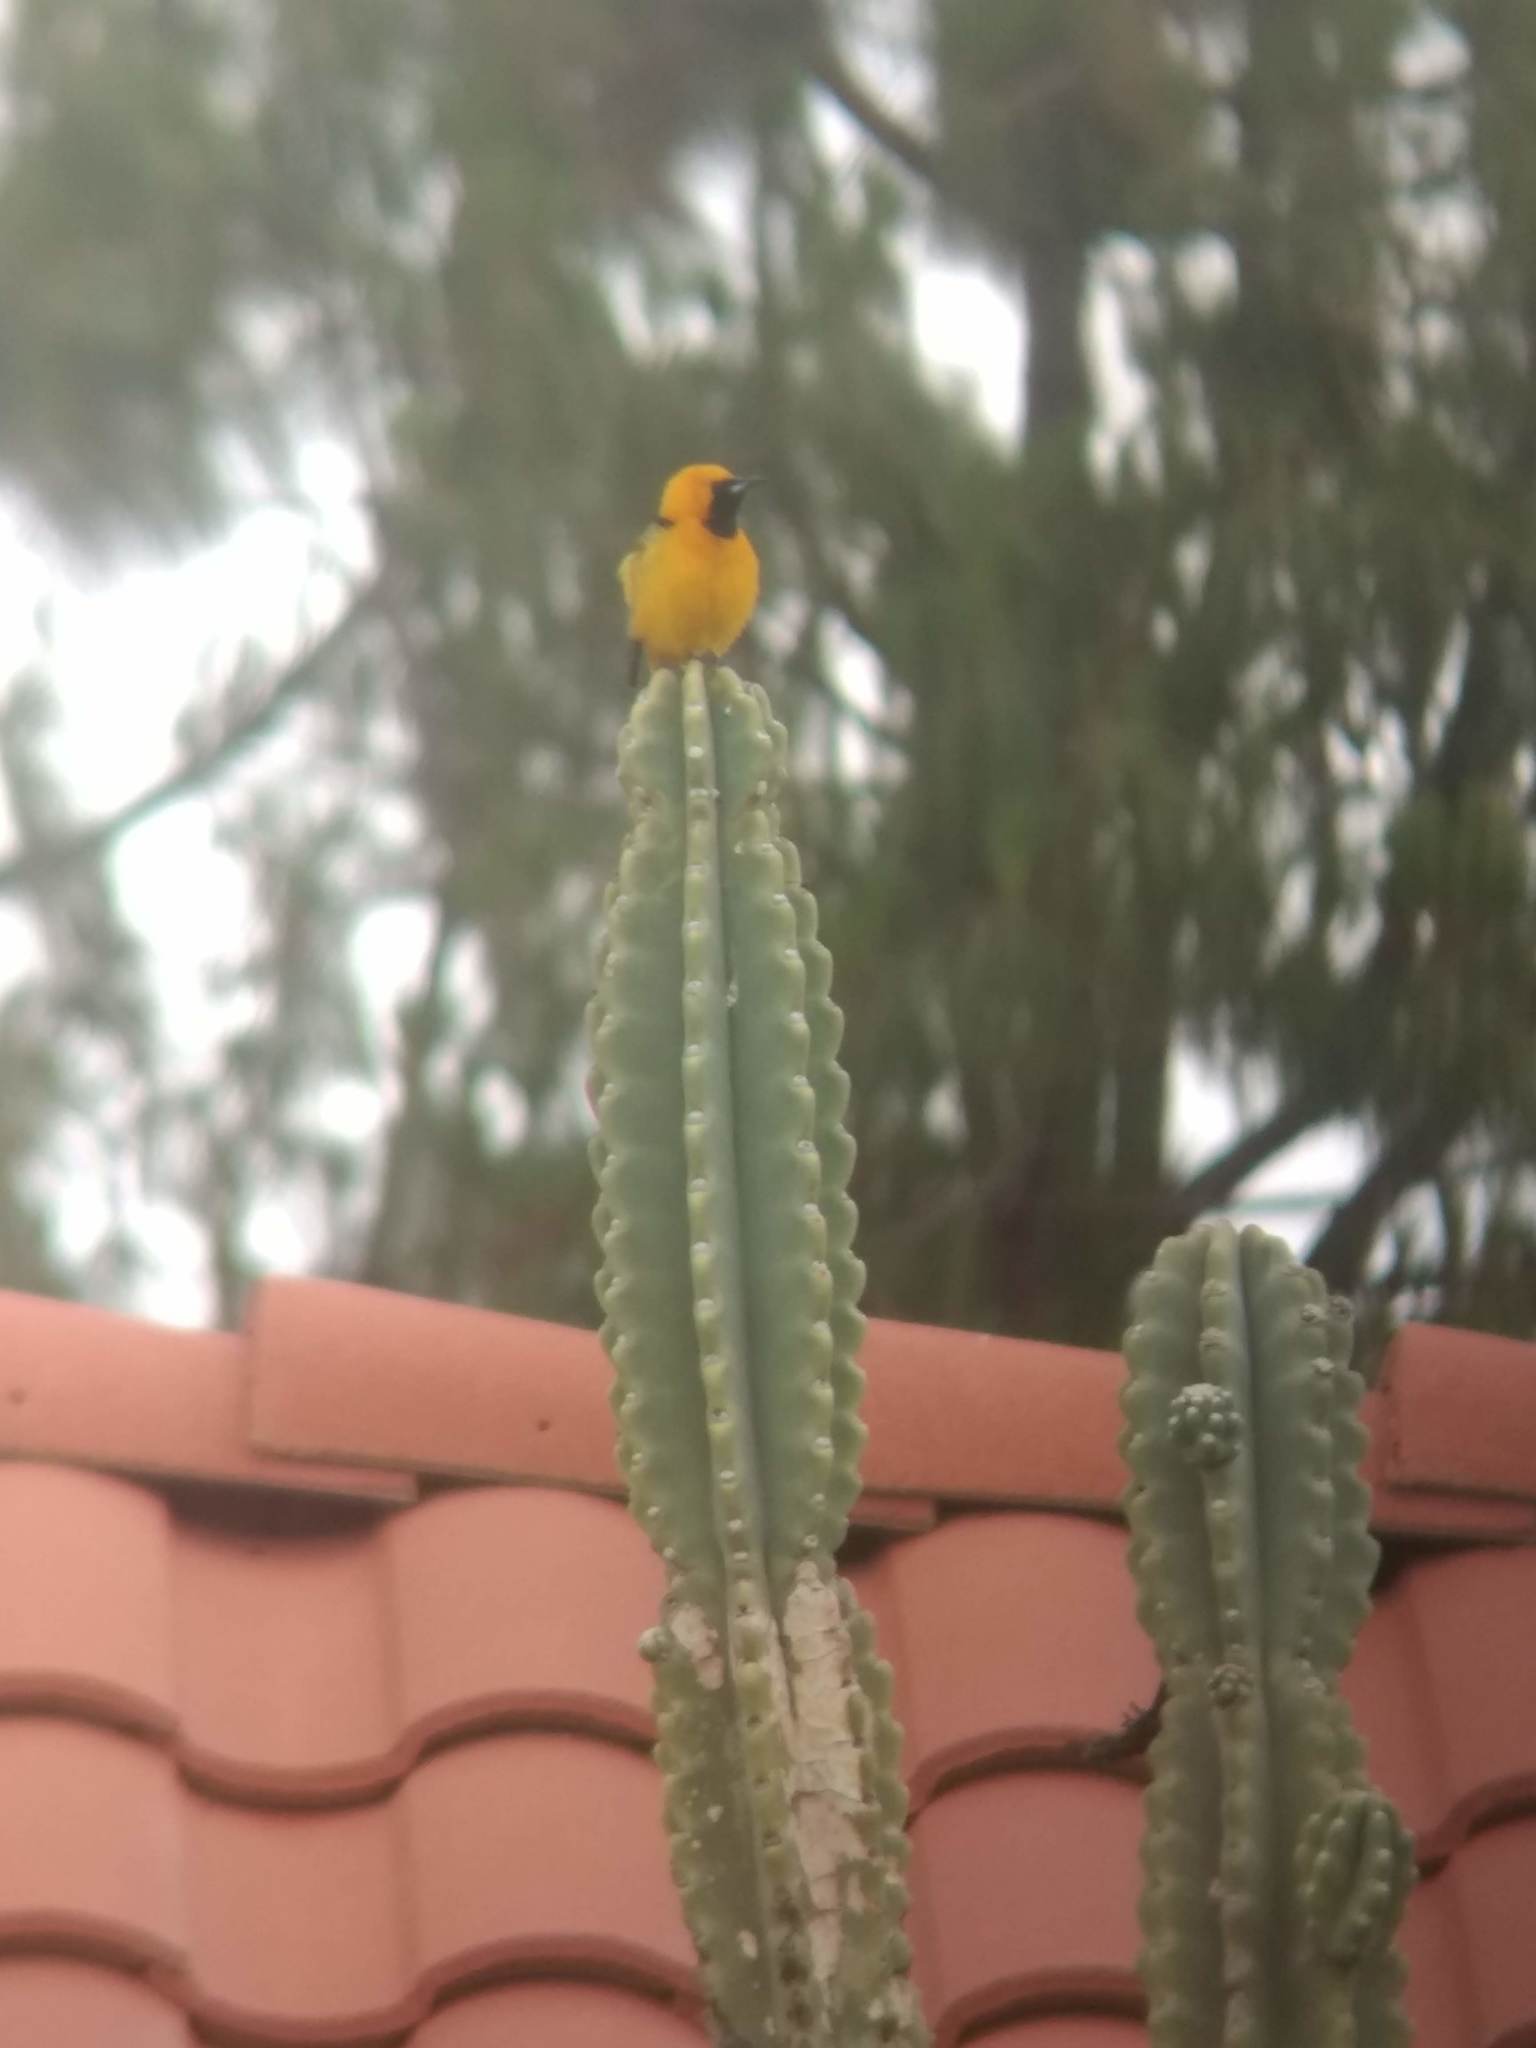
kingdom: Animalia
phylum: Chordata
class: Aves
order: Passeriformes
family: Icteridae
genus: Icterus
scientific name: Icterus cucullatus
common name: Hooded oriole
